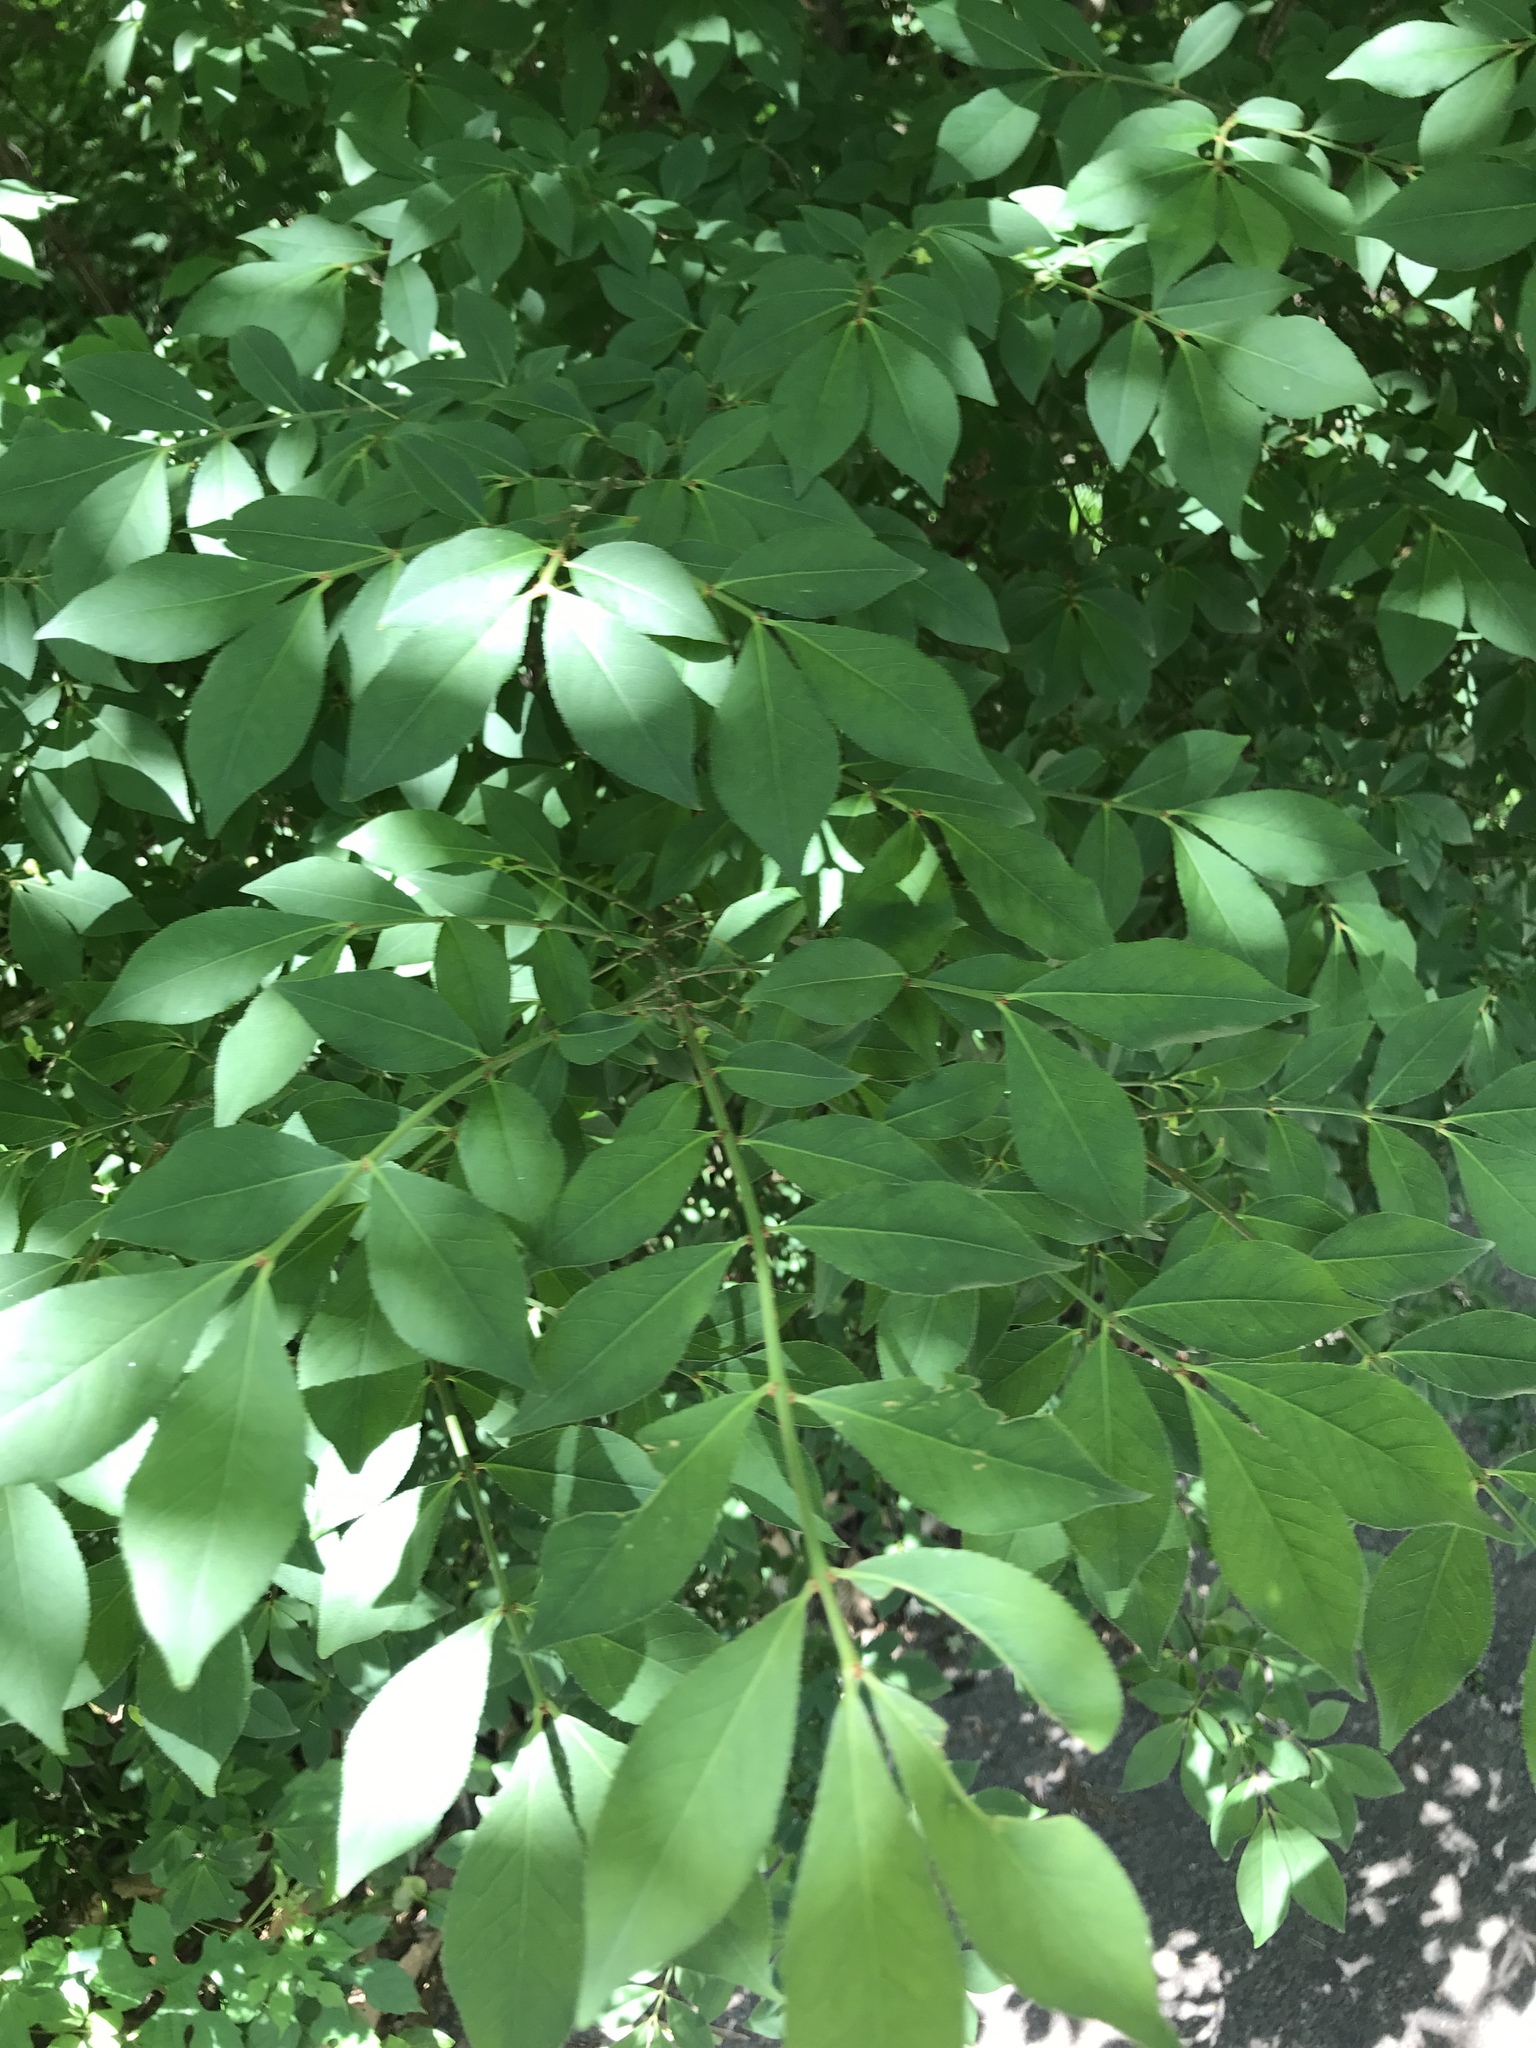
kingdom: Plantae
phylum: Tracheophyta
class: Magnoliopsida
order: Celastrales
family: Celastraceae
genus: Euonymus
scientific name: Euonymus alatus
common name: Winged euonymus
